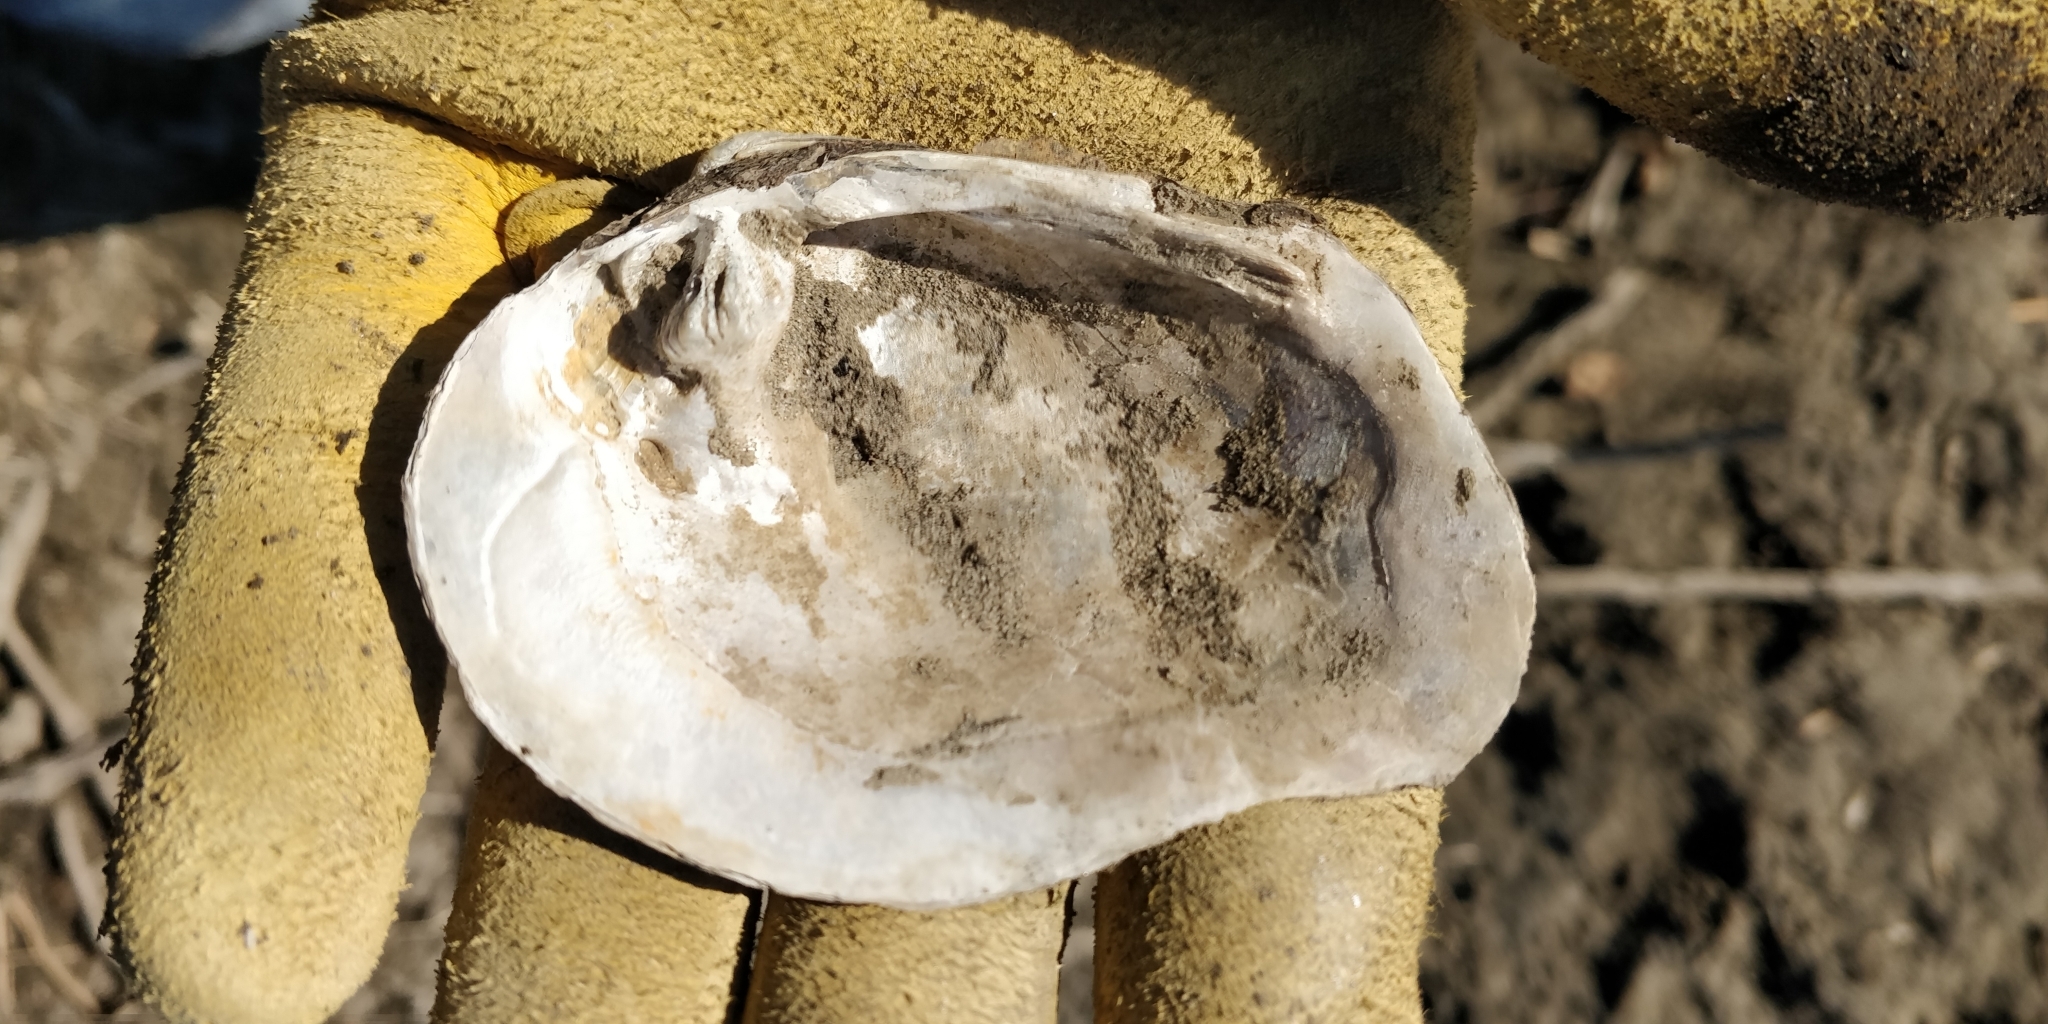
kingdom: Animalia
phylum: Mollusca
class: Bivalvia
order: Unionida
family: Unionidae
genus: Quadrula
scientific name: Quadrula quadrula
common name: Mapleleaf
